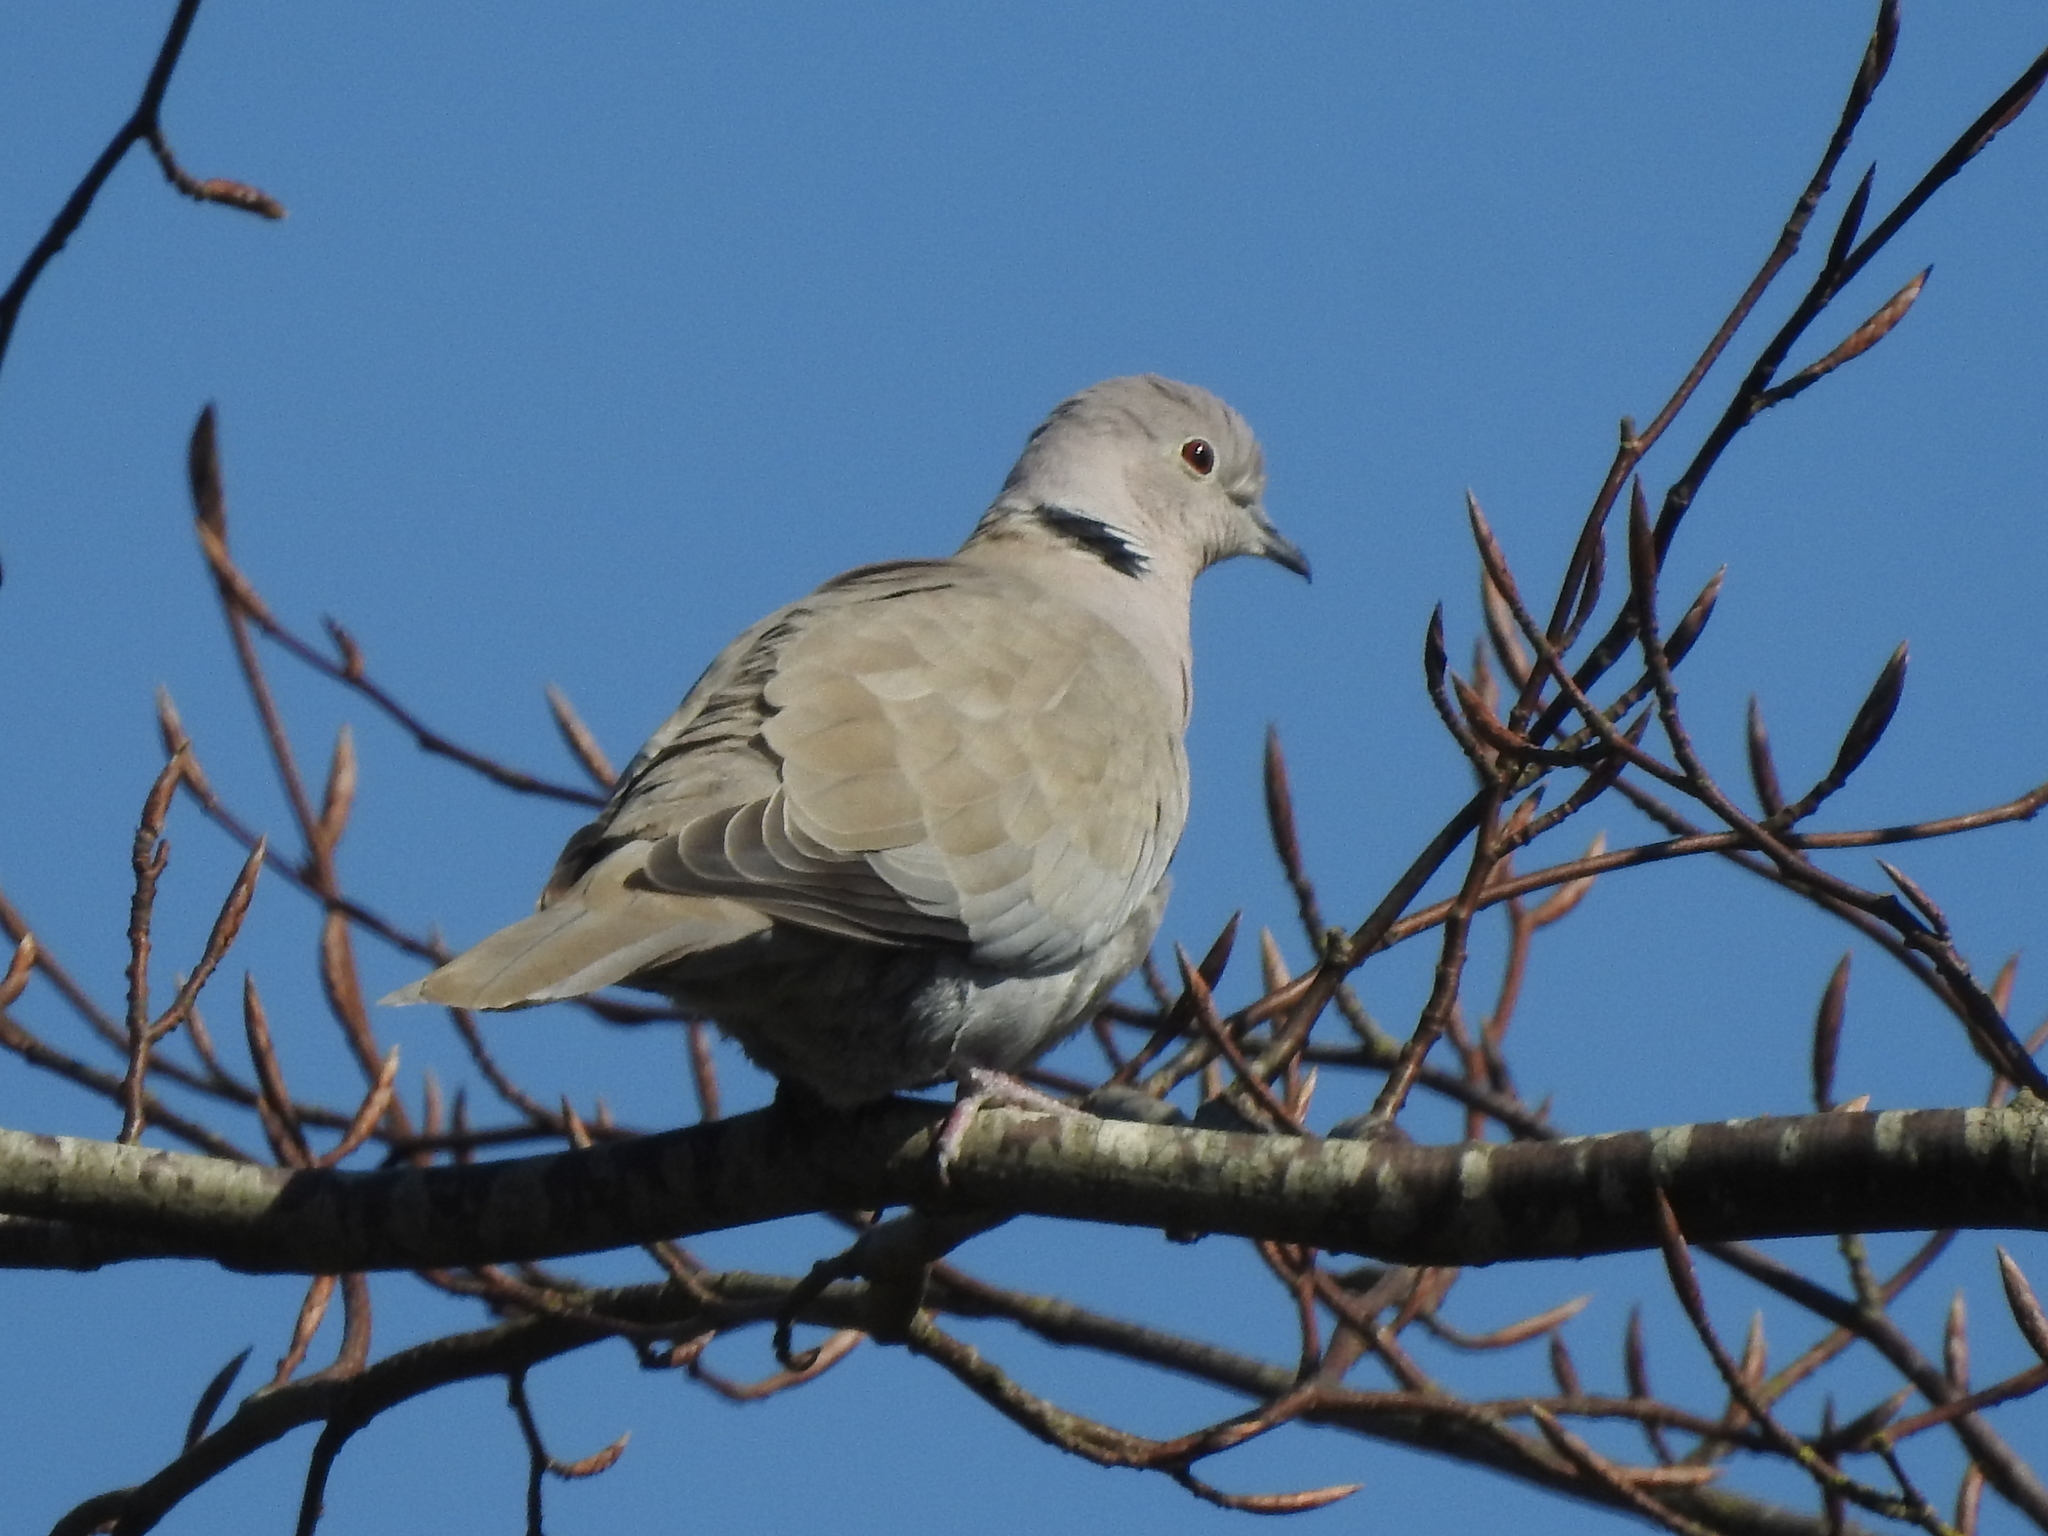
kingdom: Animalia
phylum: Chordata
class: Aves
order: Columbiformes
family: Columbidae
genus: Streptopelia
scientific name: Streptopelia decaocto
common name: Eurasian collared dove
